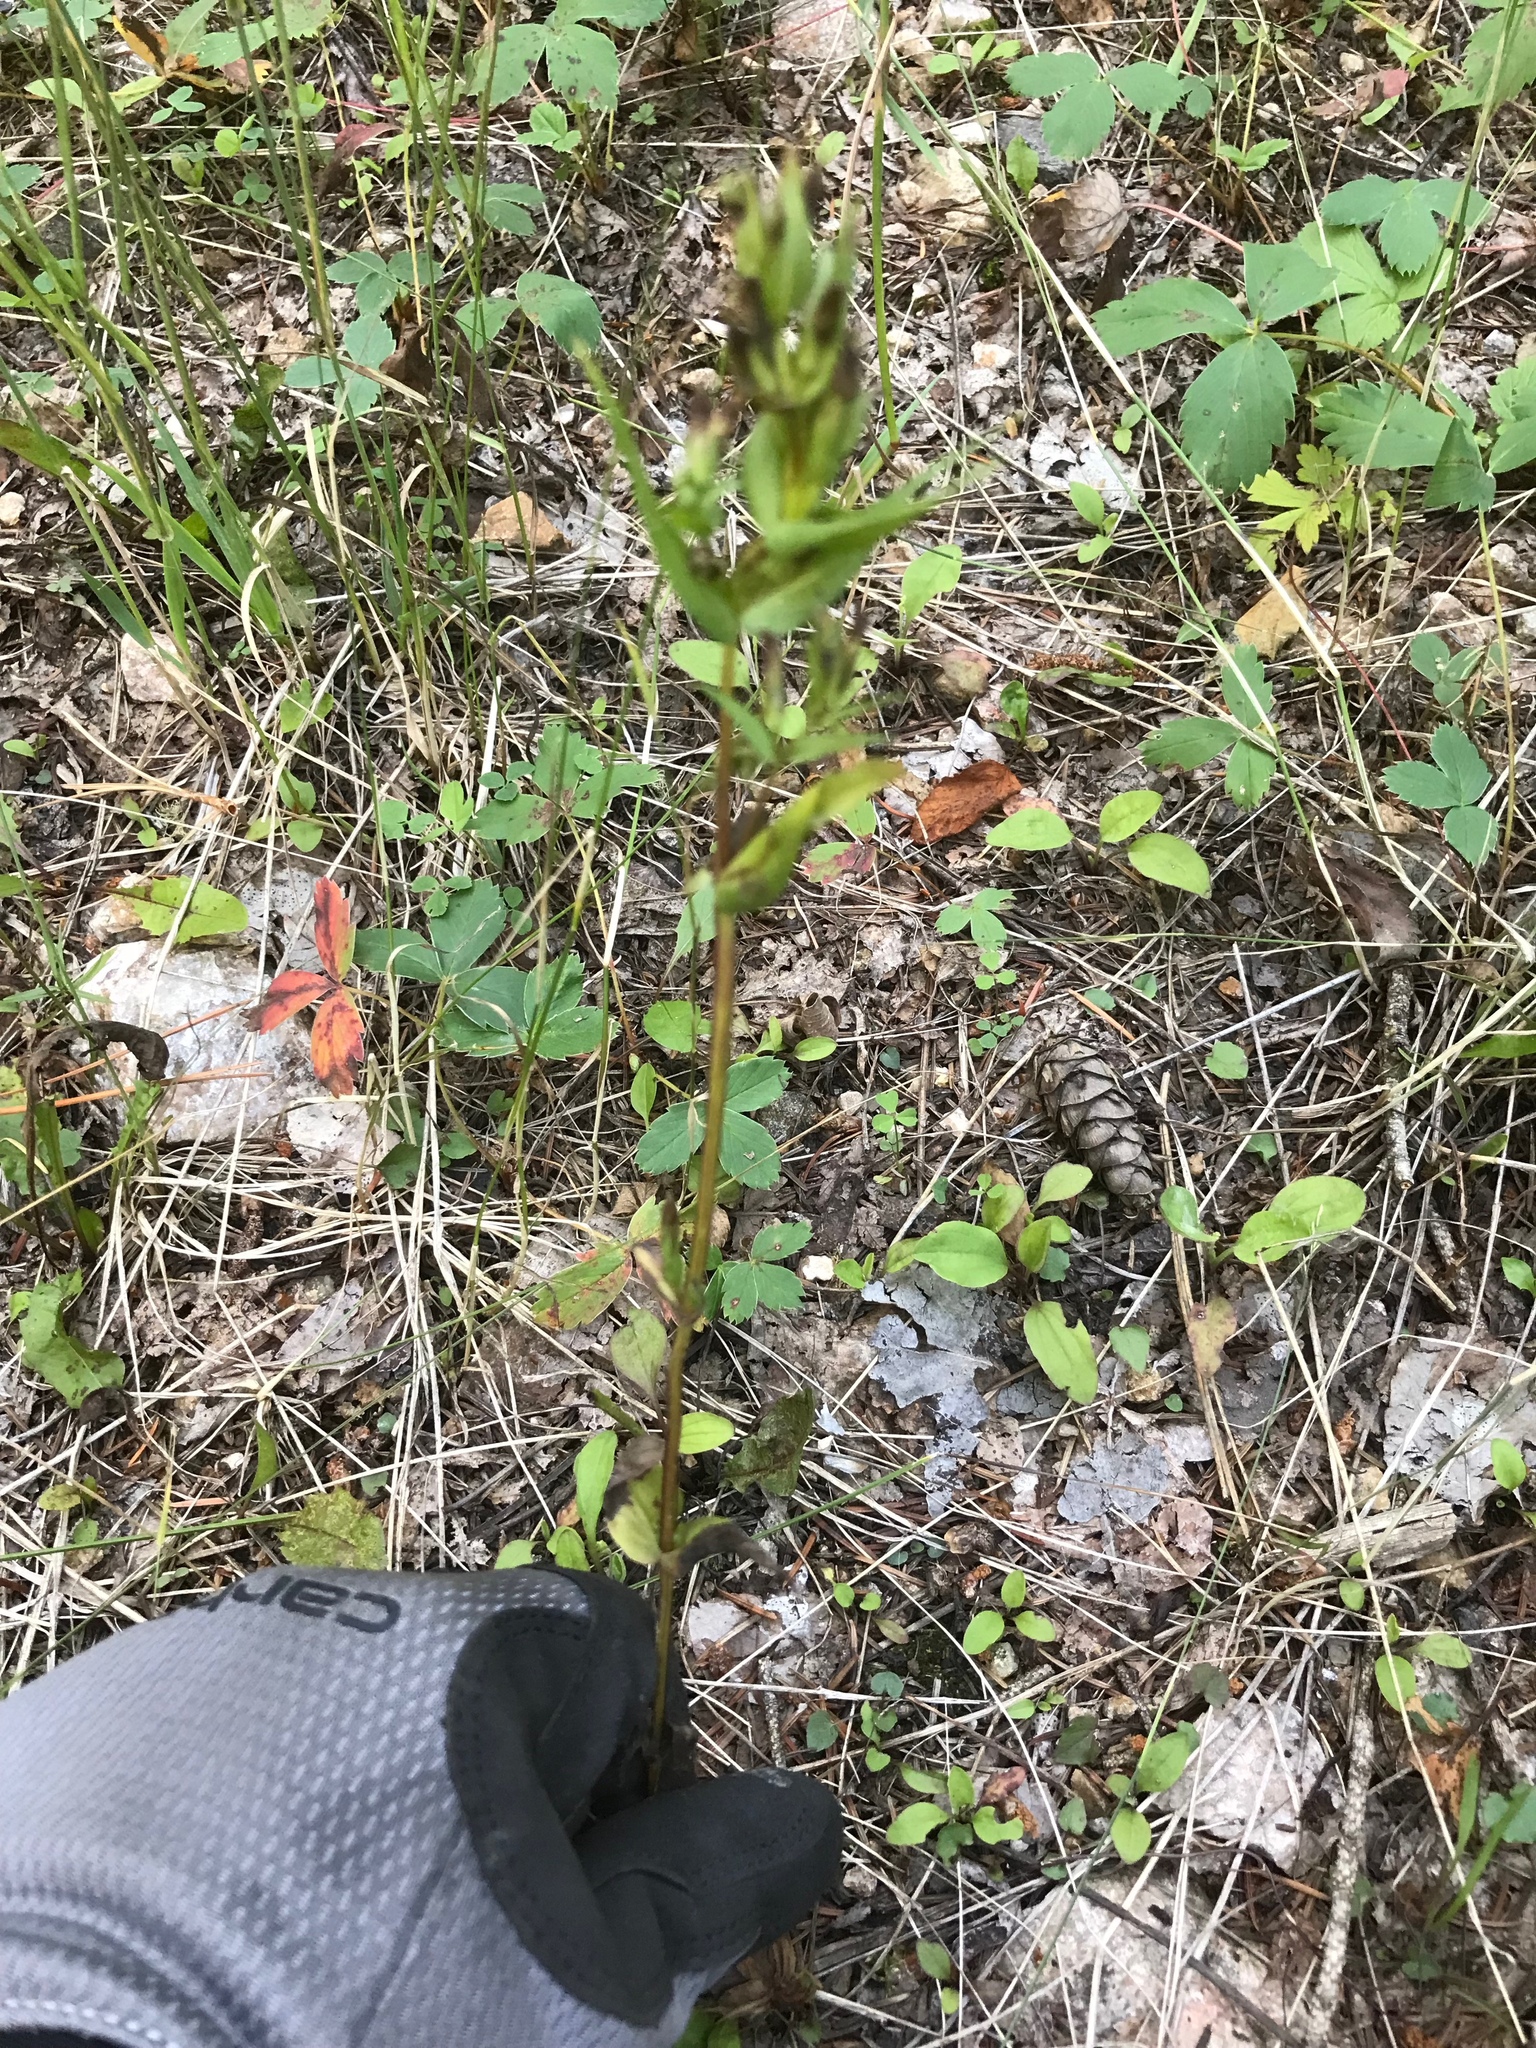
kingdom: Plantae
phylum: Tracheophyta
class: Magnoliopsida
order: Gentianales
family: Gentianaceae
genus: Gentianella
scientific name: Gentianella amarella
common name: Autumn gentian
